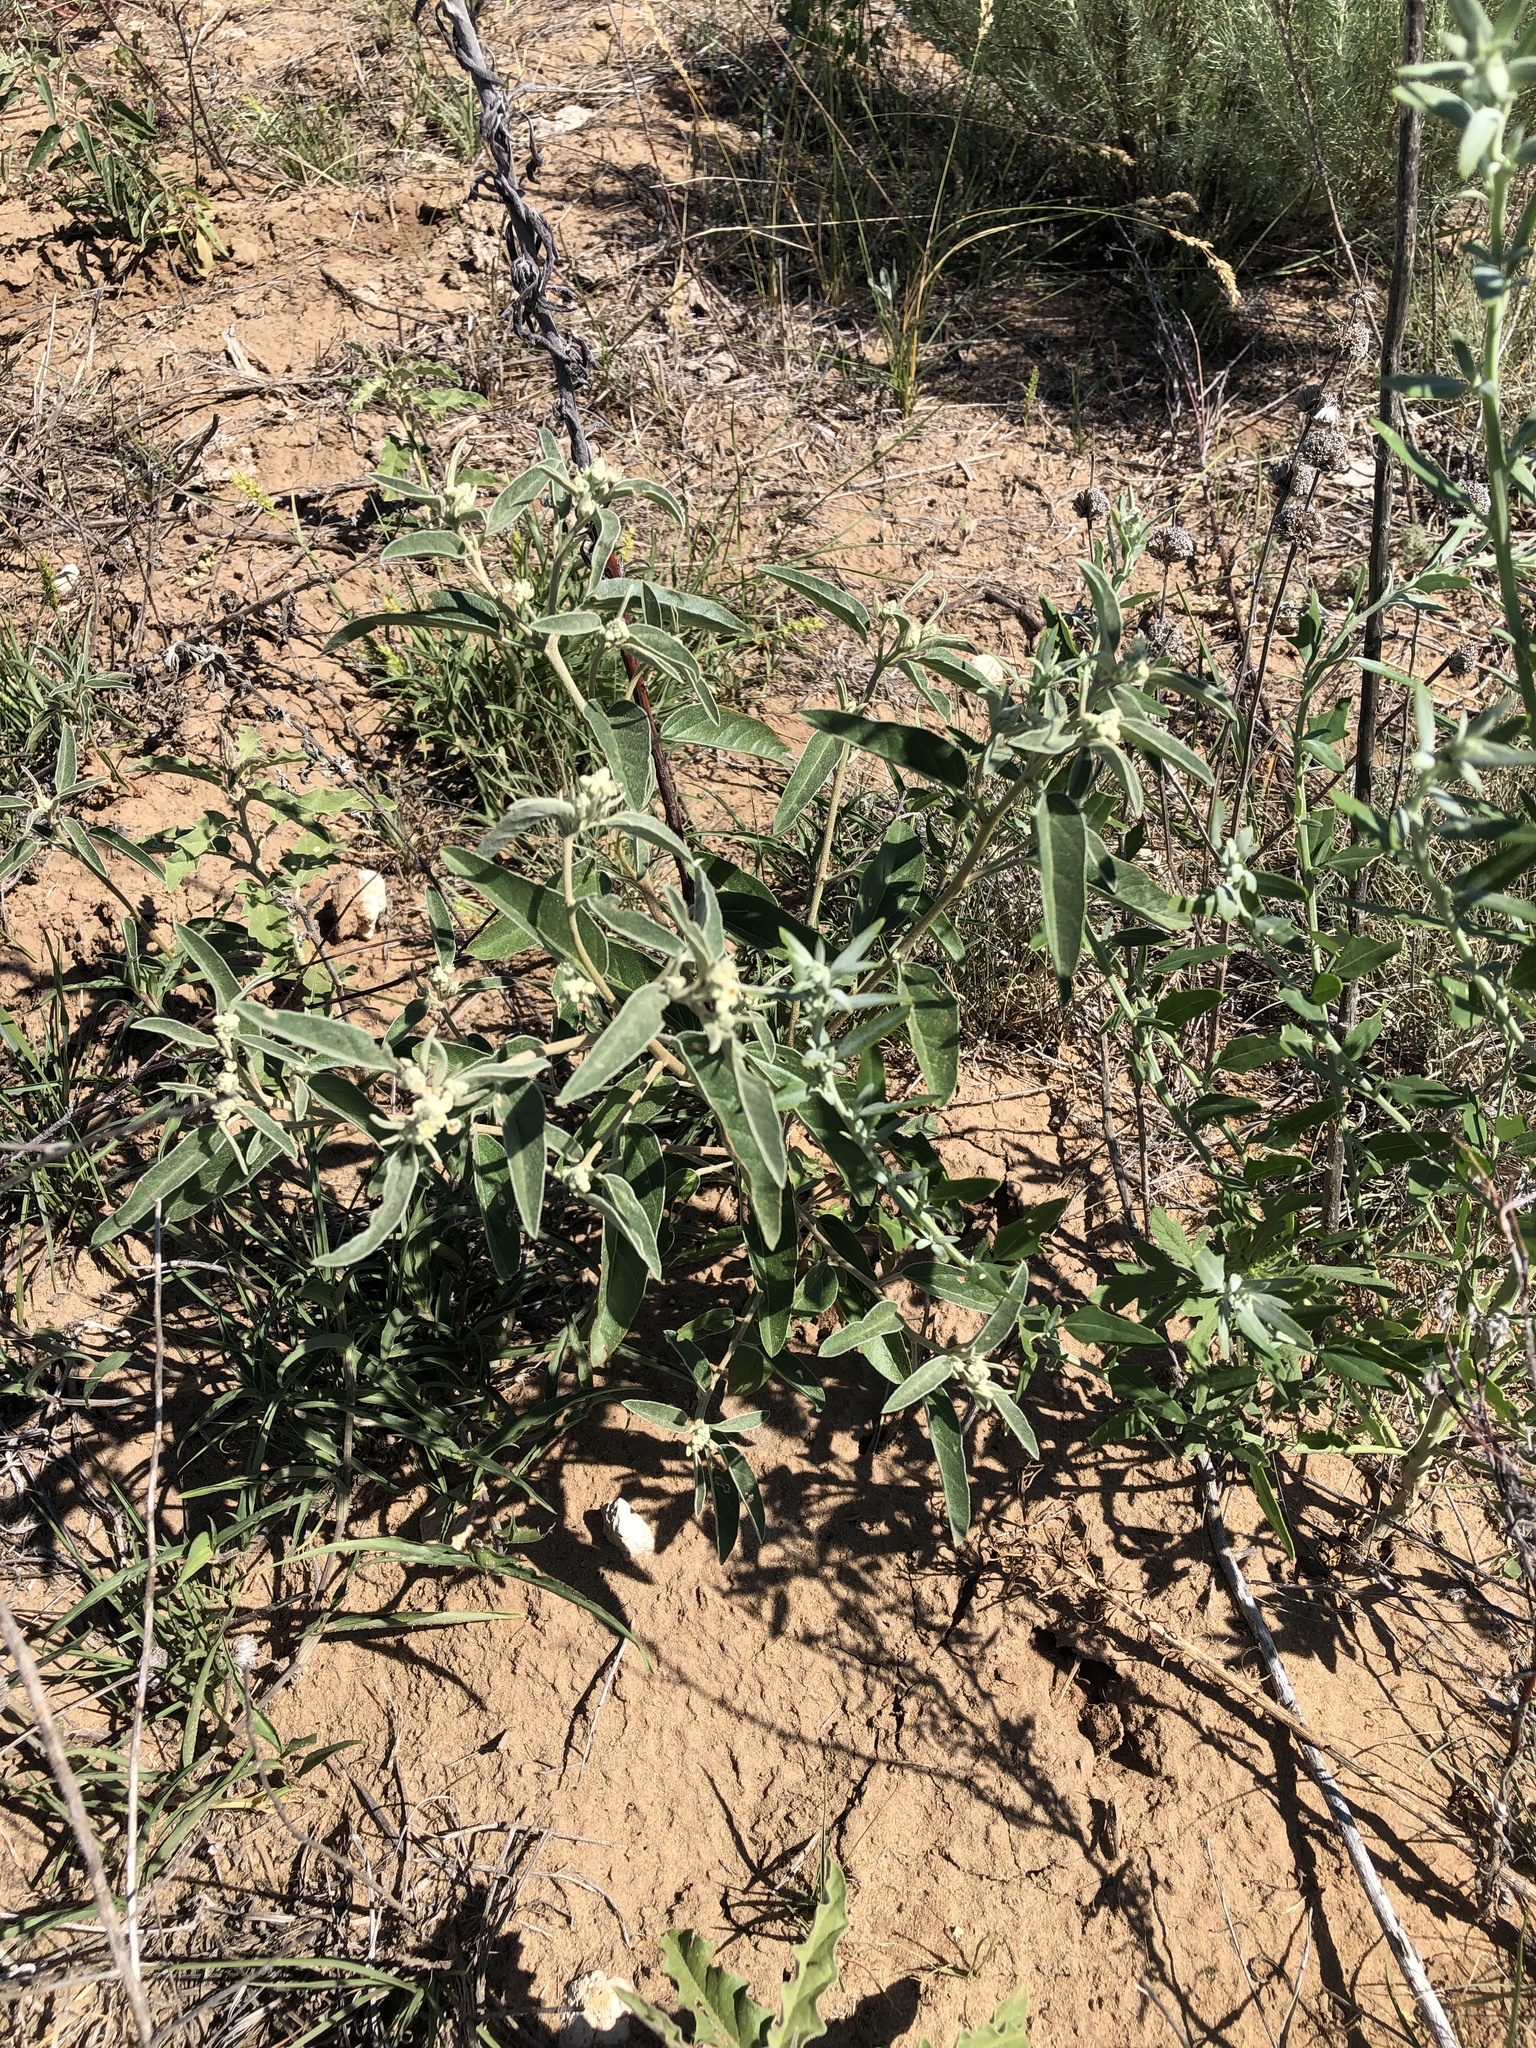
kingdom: Plantae
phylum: Tracheophyta
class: Magnoliopsida
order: Malpighiales
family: Euphorbiaceae
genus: Croton
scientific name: Croton texensis
